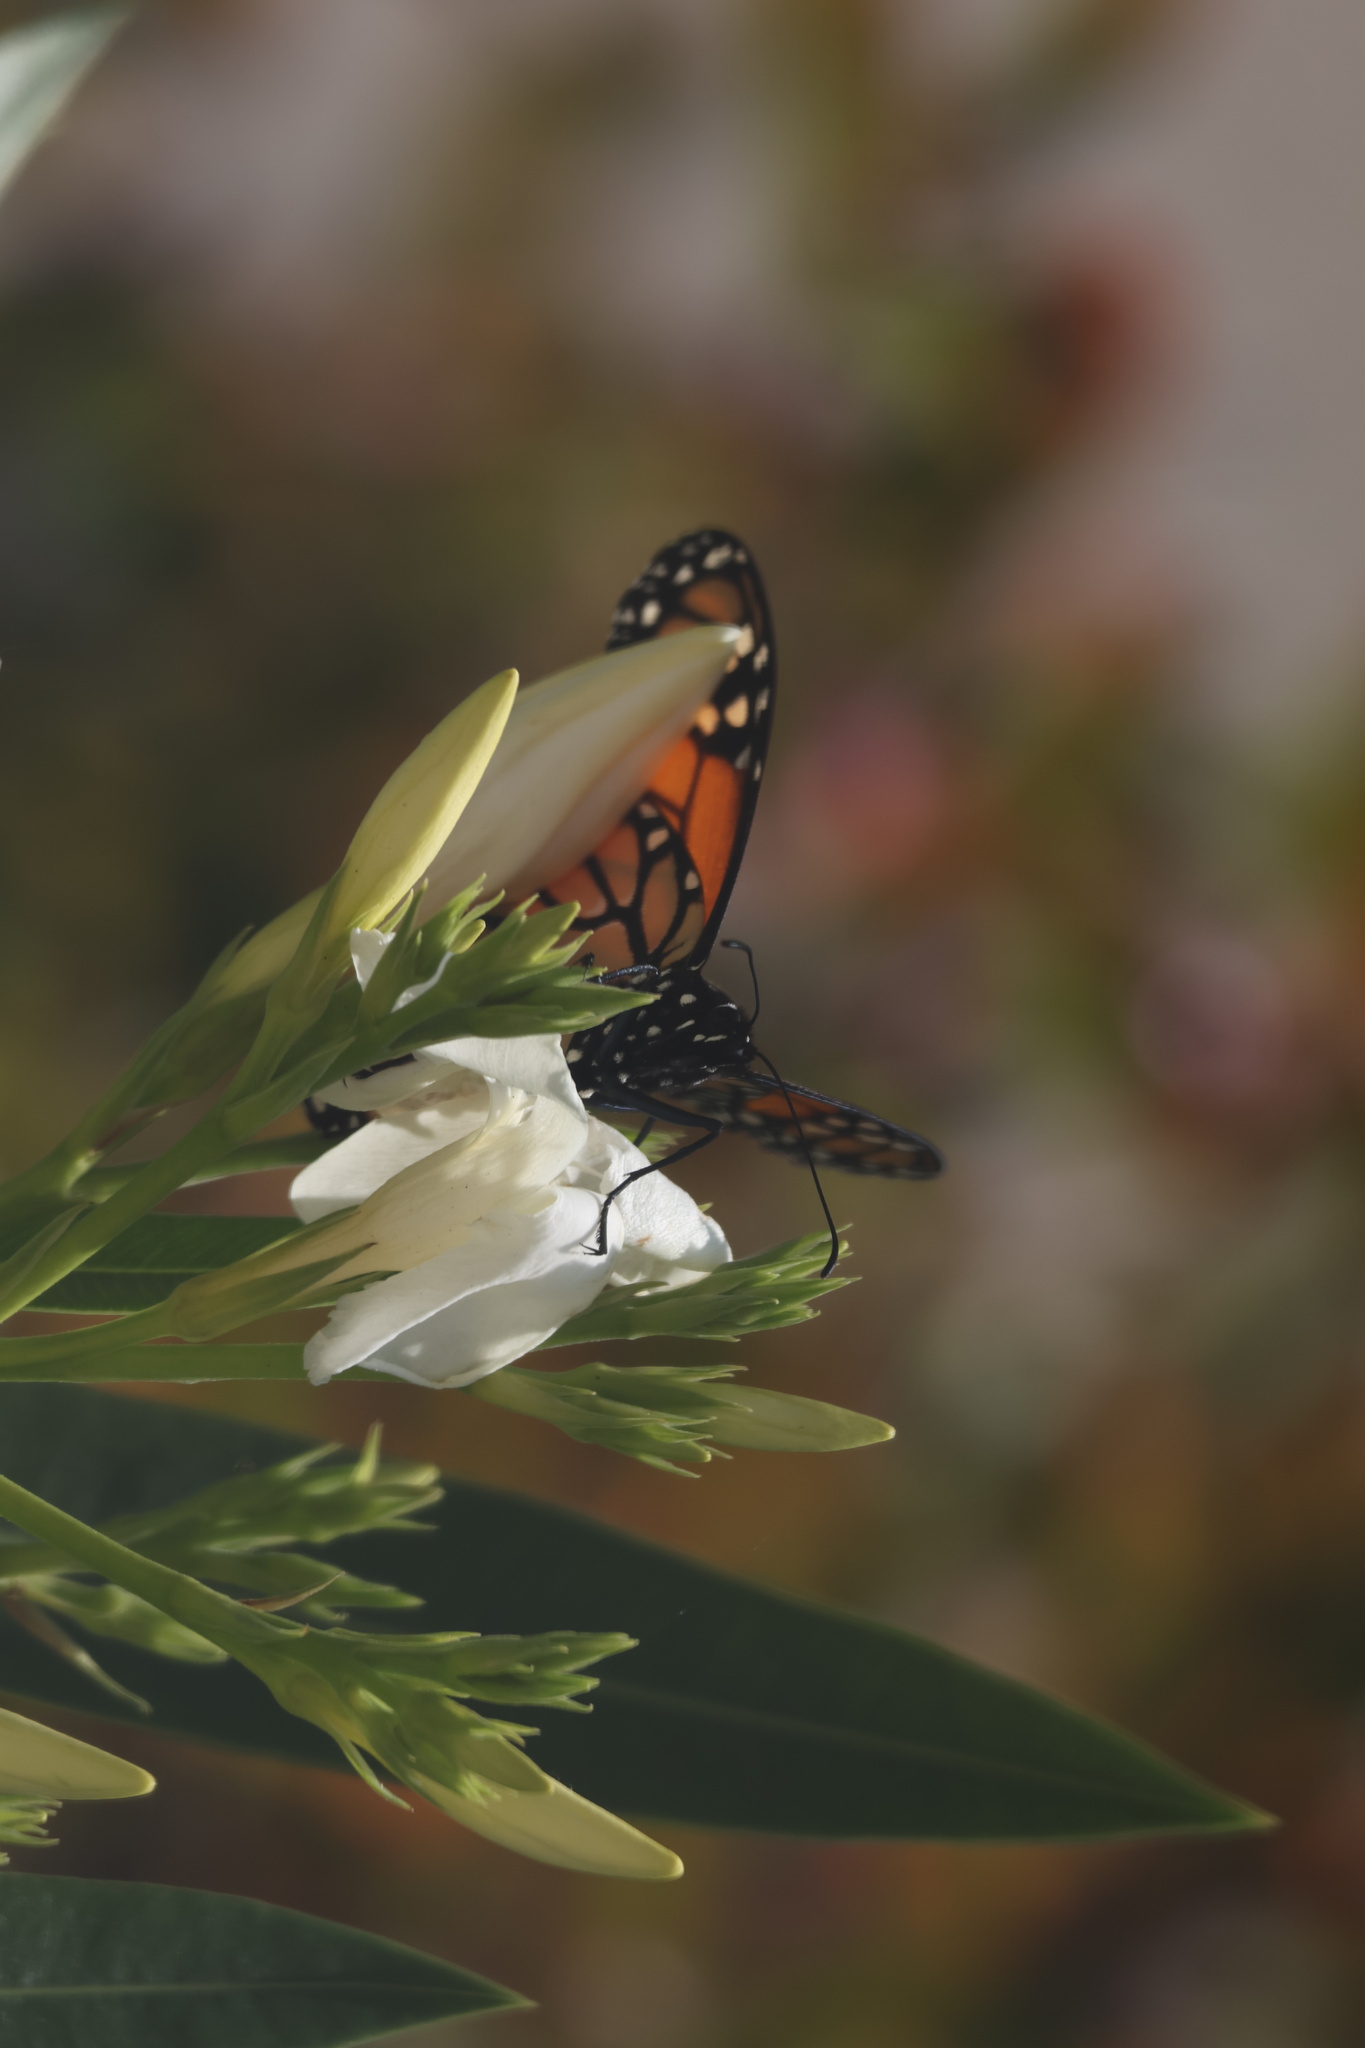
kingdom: Animalia
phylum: Arthropoda
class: Insecta
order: Lepidoptera
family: Nymphalidae
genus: Danaus
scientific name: Danaus plexippus
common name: Monarch
